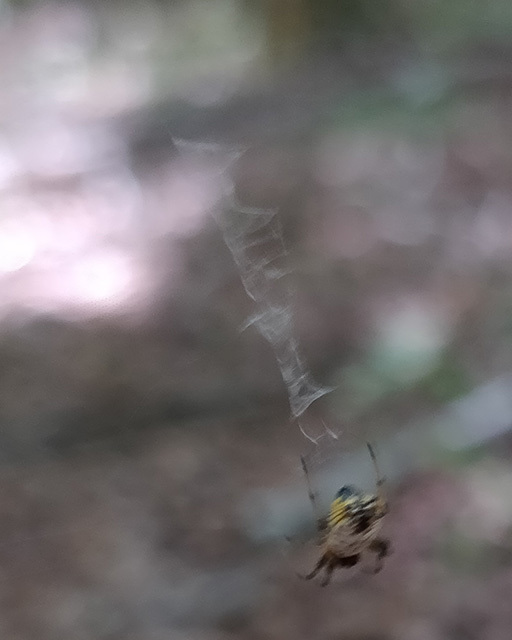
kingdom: Animalia
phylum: Arthropoda
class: Arachnida
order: Araneae
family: Araneidae
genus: Micrathena
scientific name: Micrathena mitrata
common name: Orb weavers
